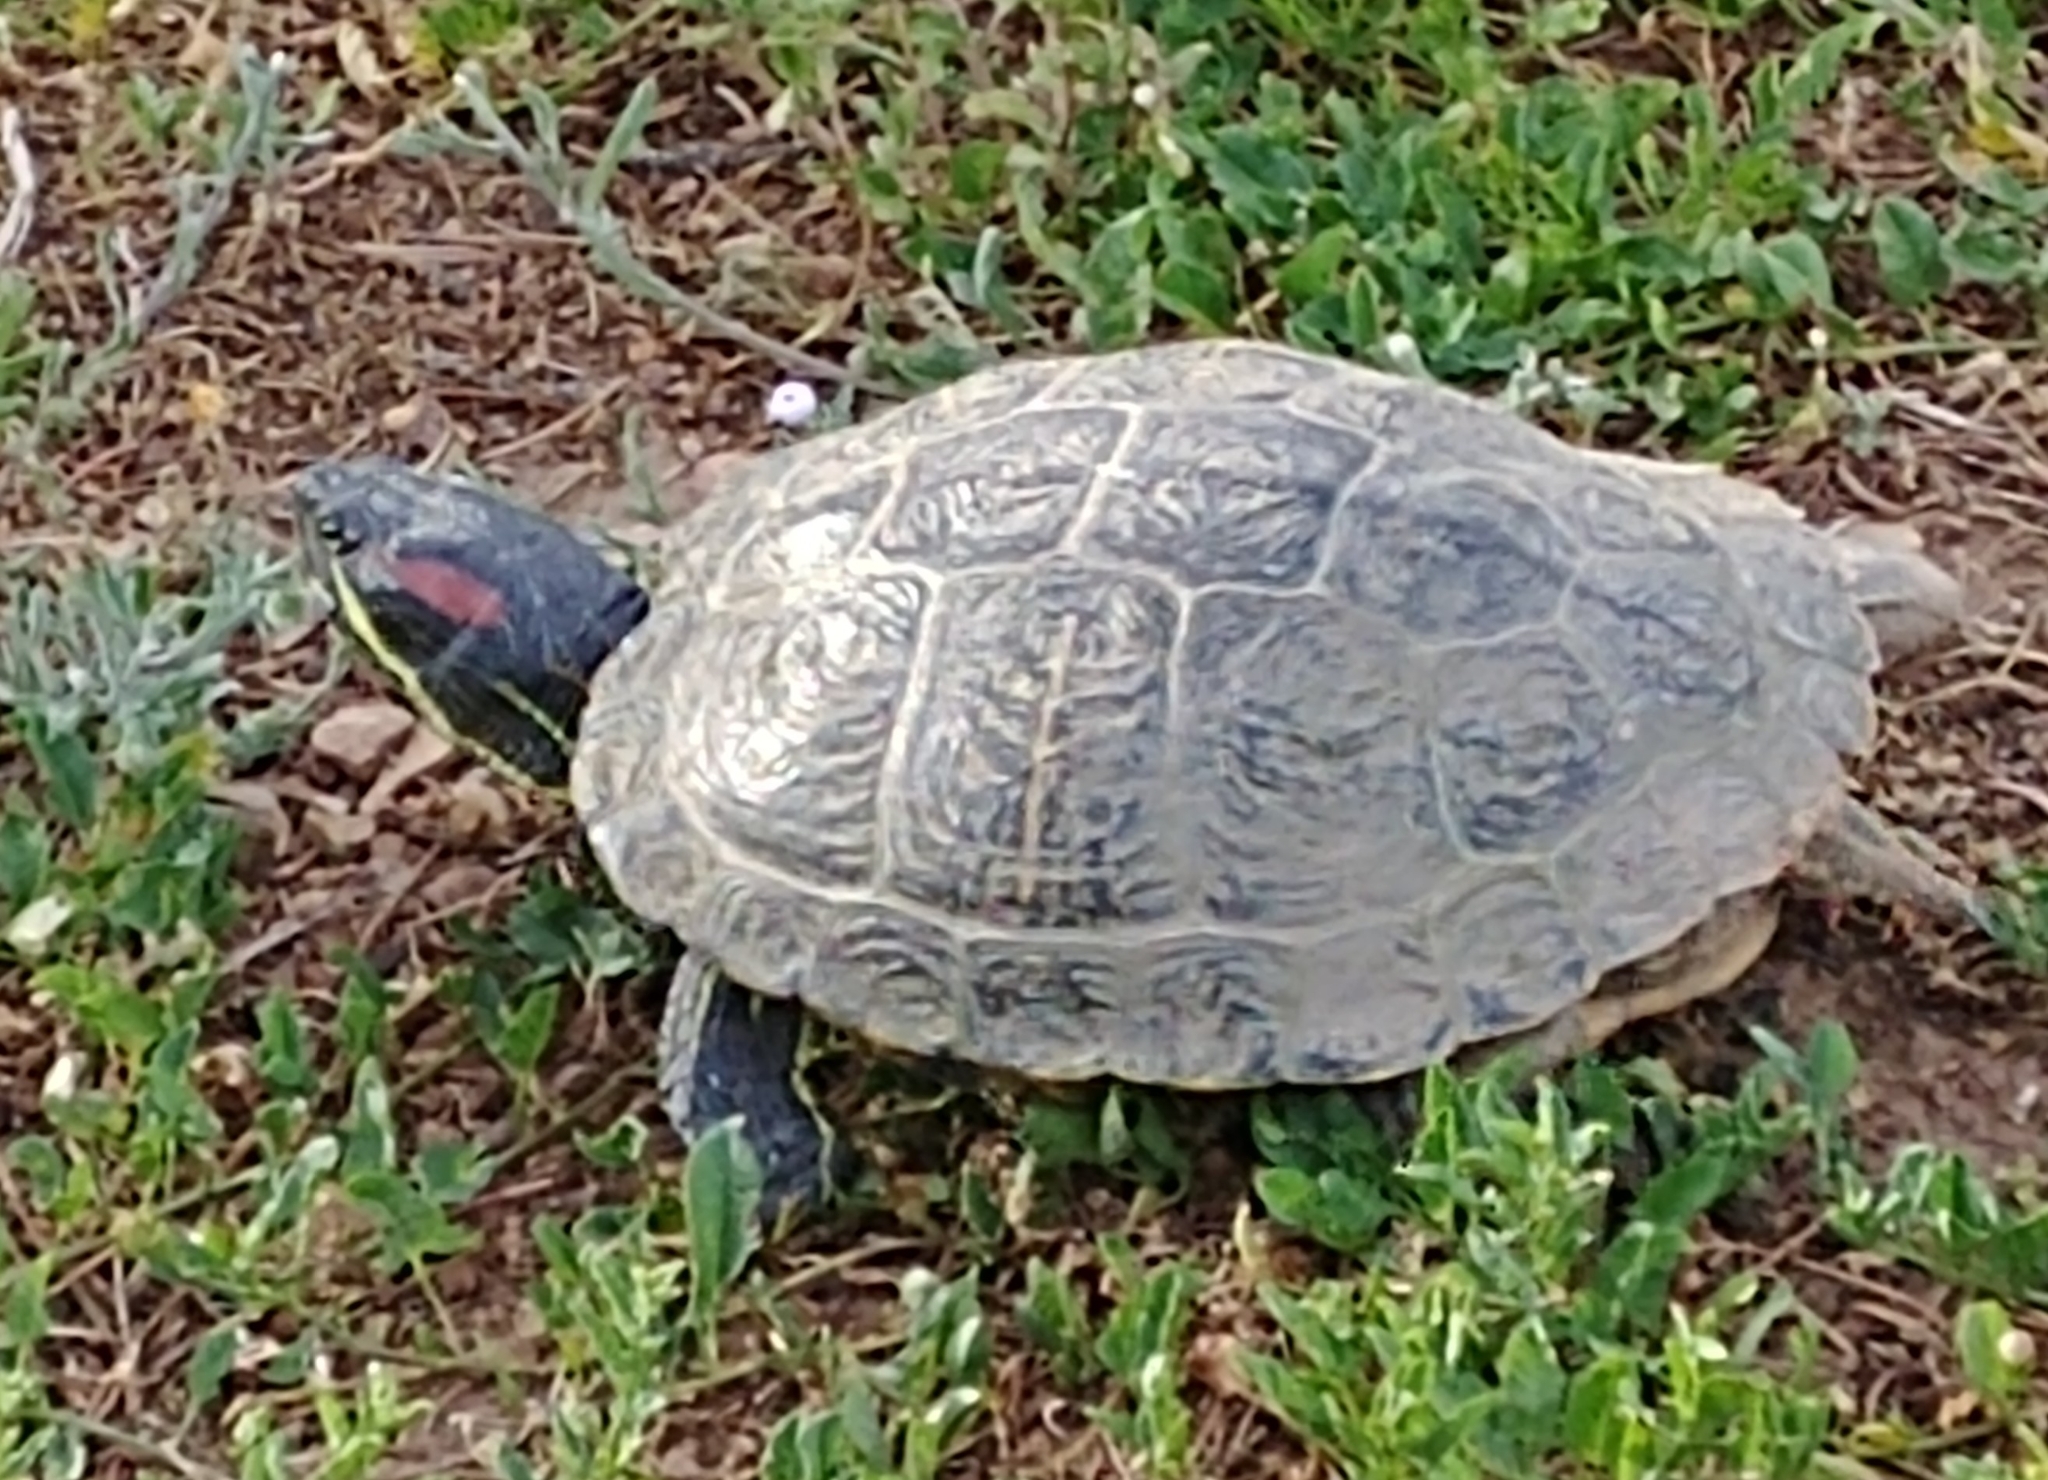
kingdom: Animalia
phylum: Chordata
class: Testudines
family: Emydidae
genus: Trachemys
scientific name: Trachemys scripta
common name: Slider
